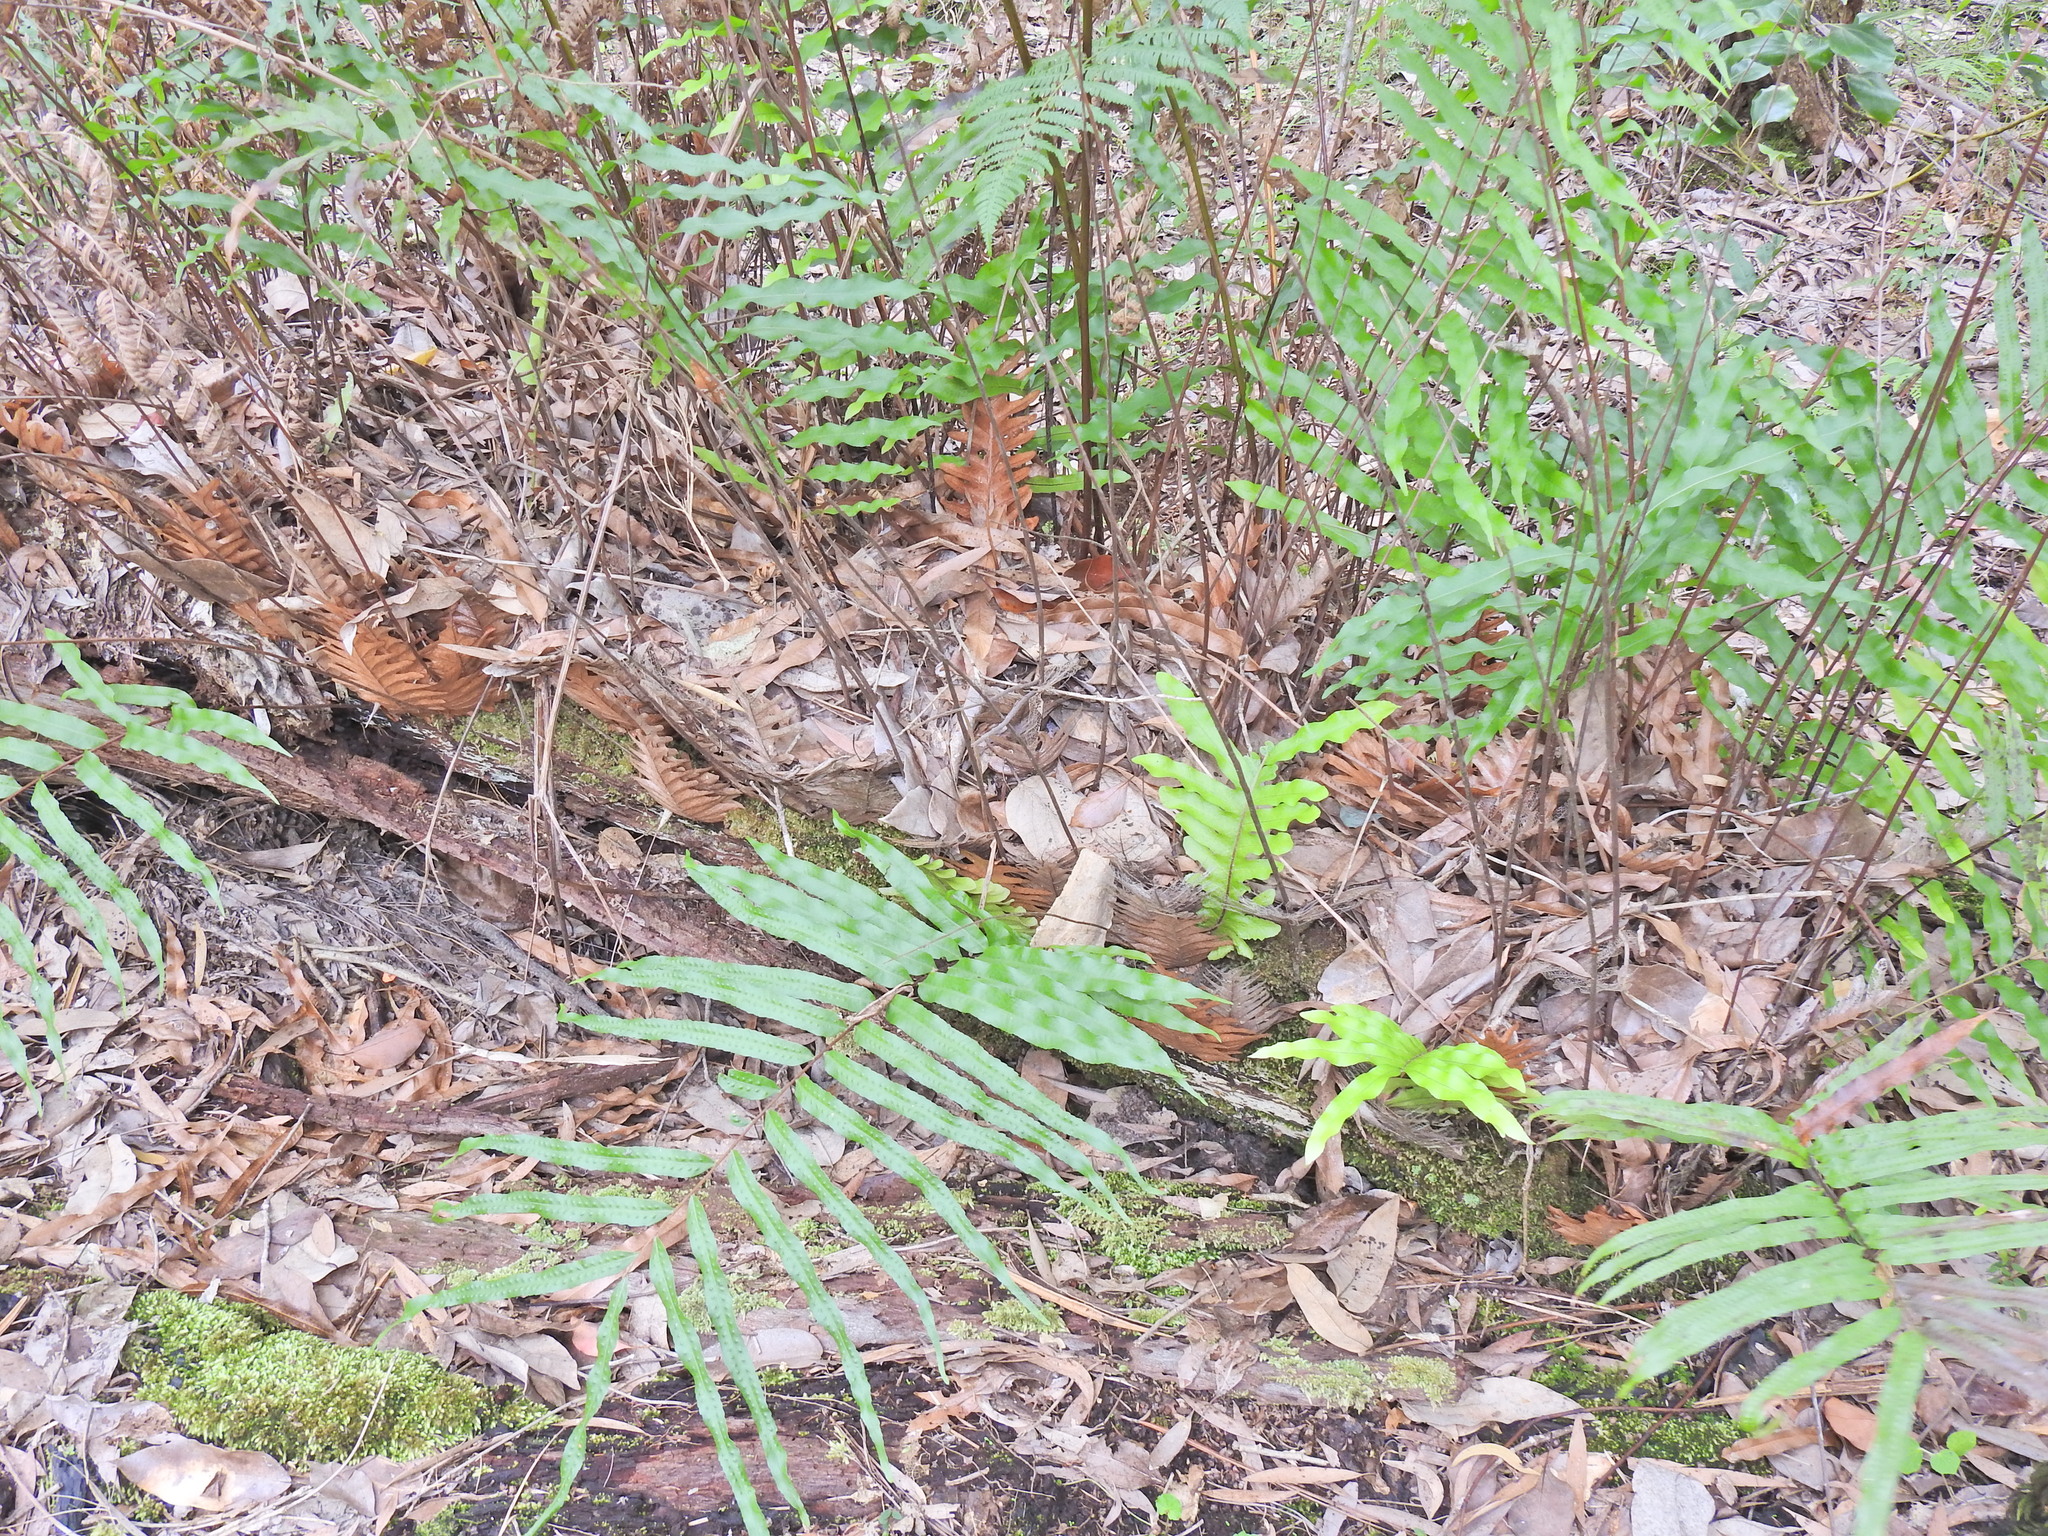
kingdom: Plantae
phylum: Tracheophyta
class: Polypodiopsida
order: Polypodiales
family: Polypodiaceae
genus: Drynaria
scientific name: Drynaria rigidula
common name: Basket fern
